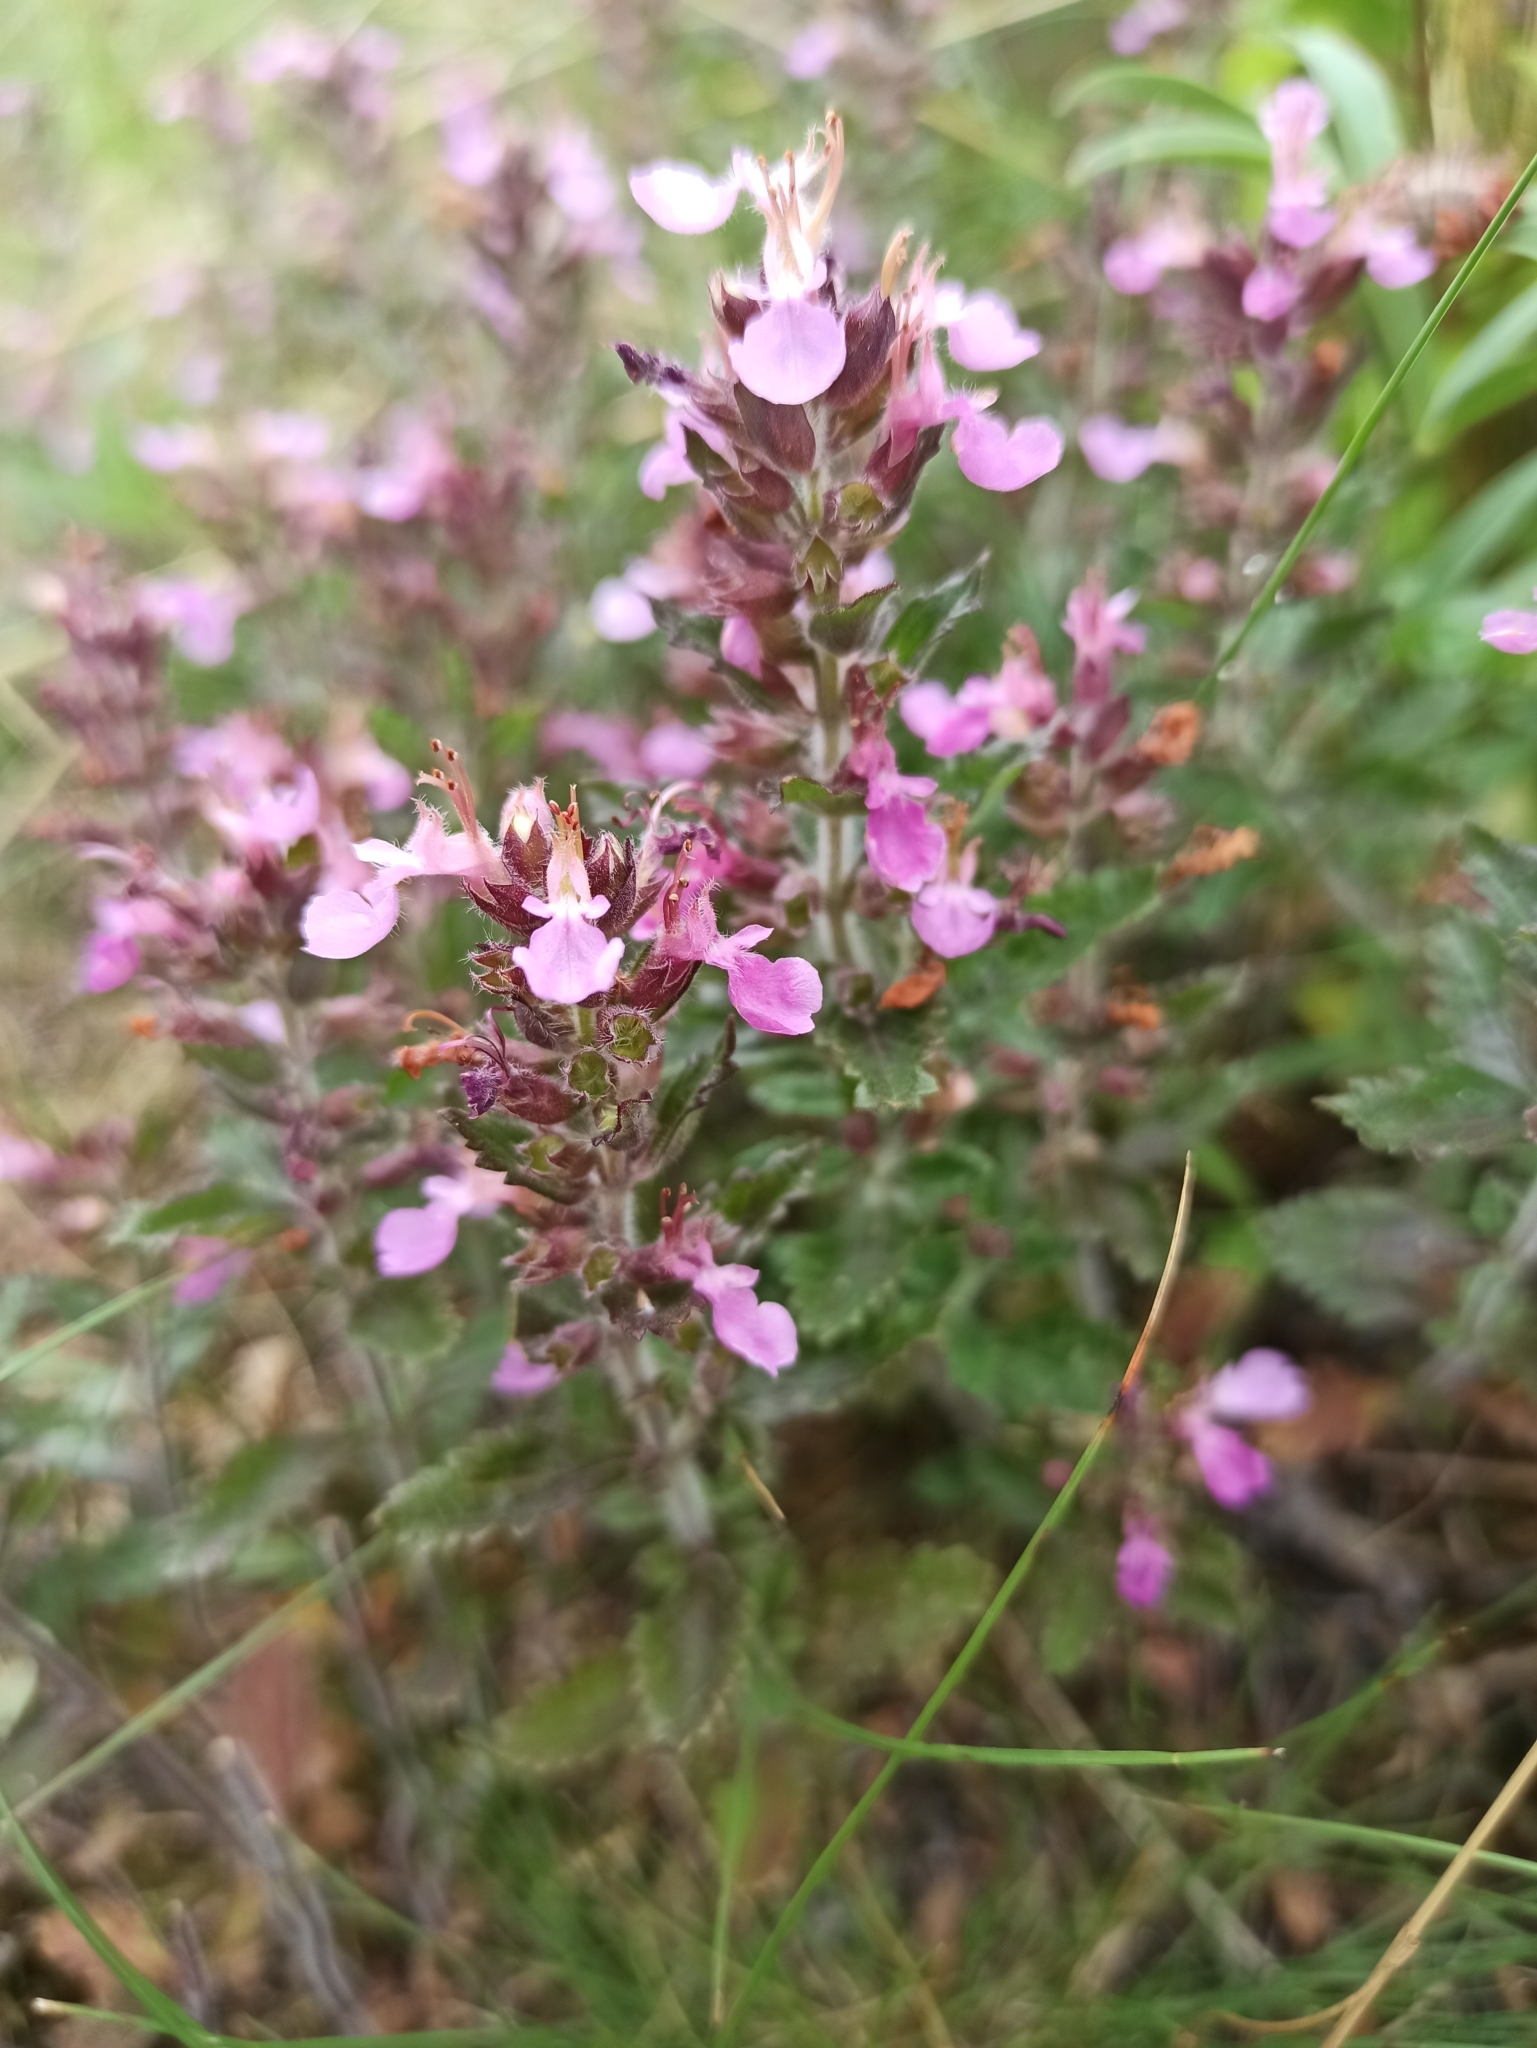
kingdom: Plantae
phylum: Tracheophyta
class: Magnoliopsida
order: Lamiales
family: Lamiaceae
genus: Teucrium
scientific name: Teucrium chamaedrys
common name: Wall germander
